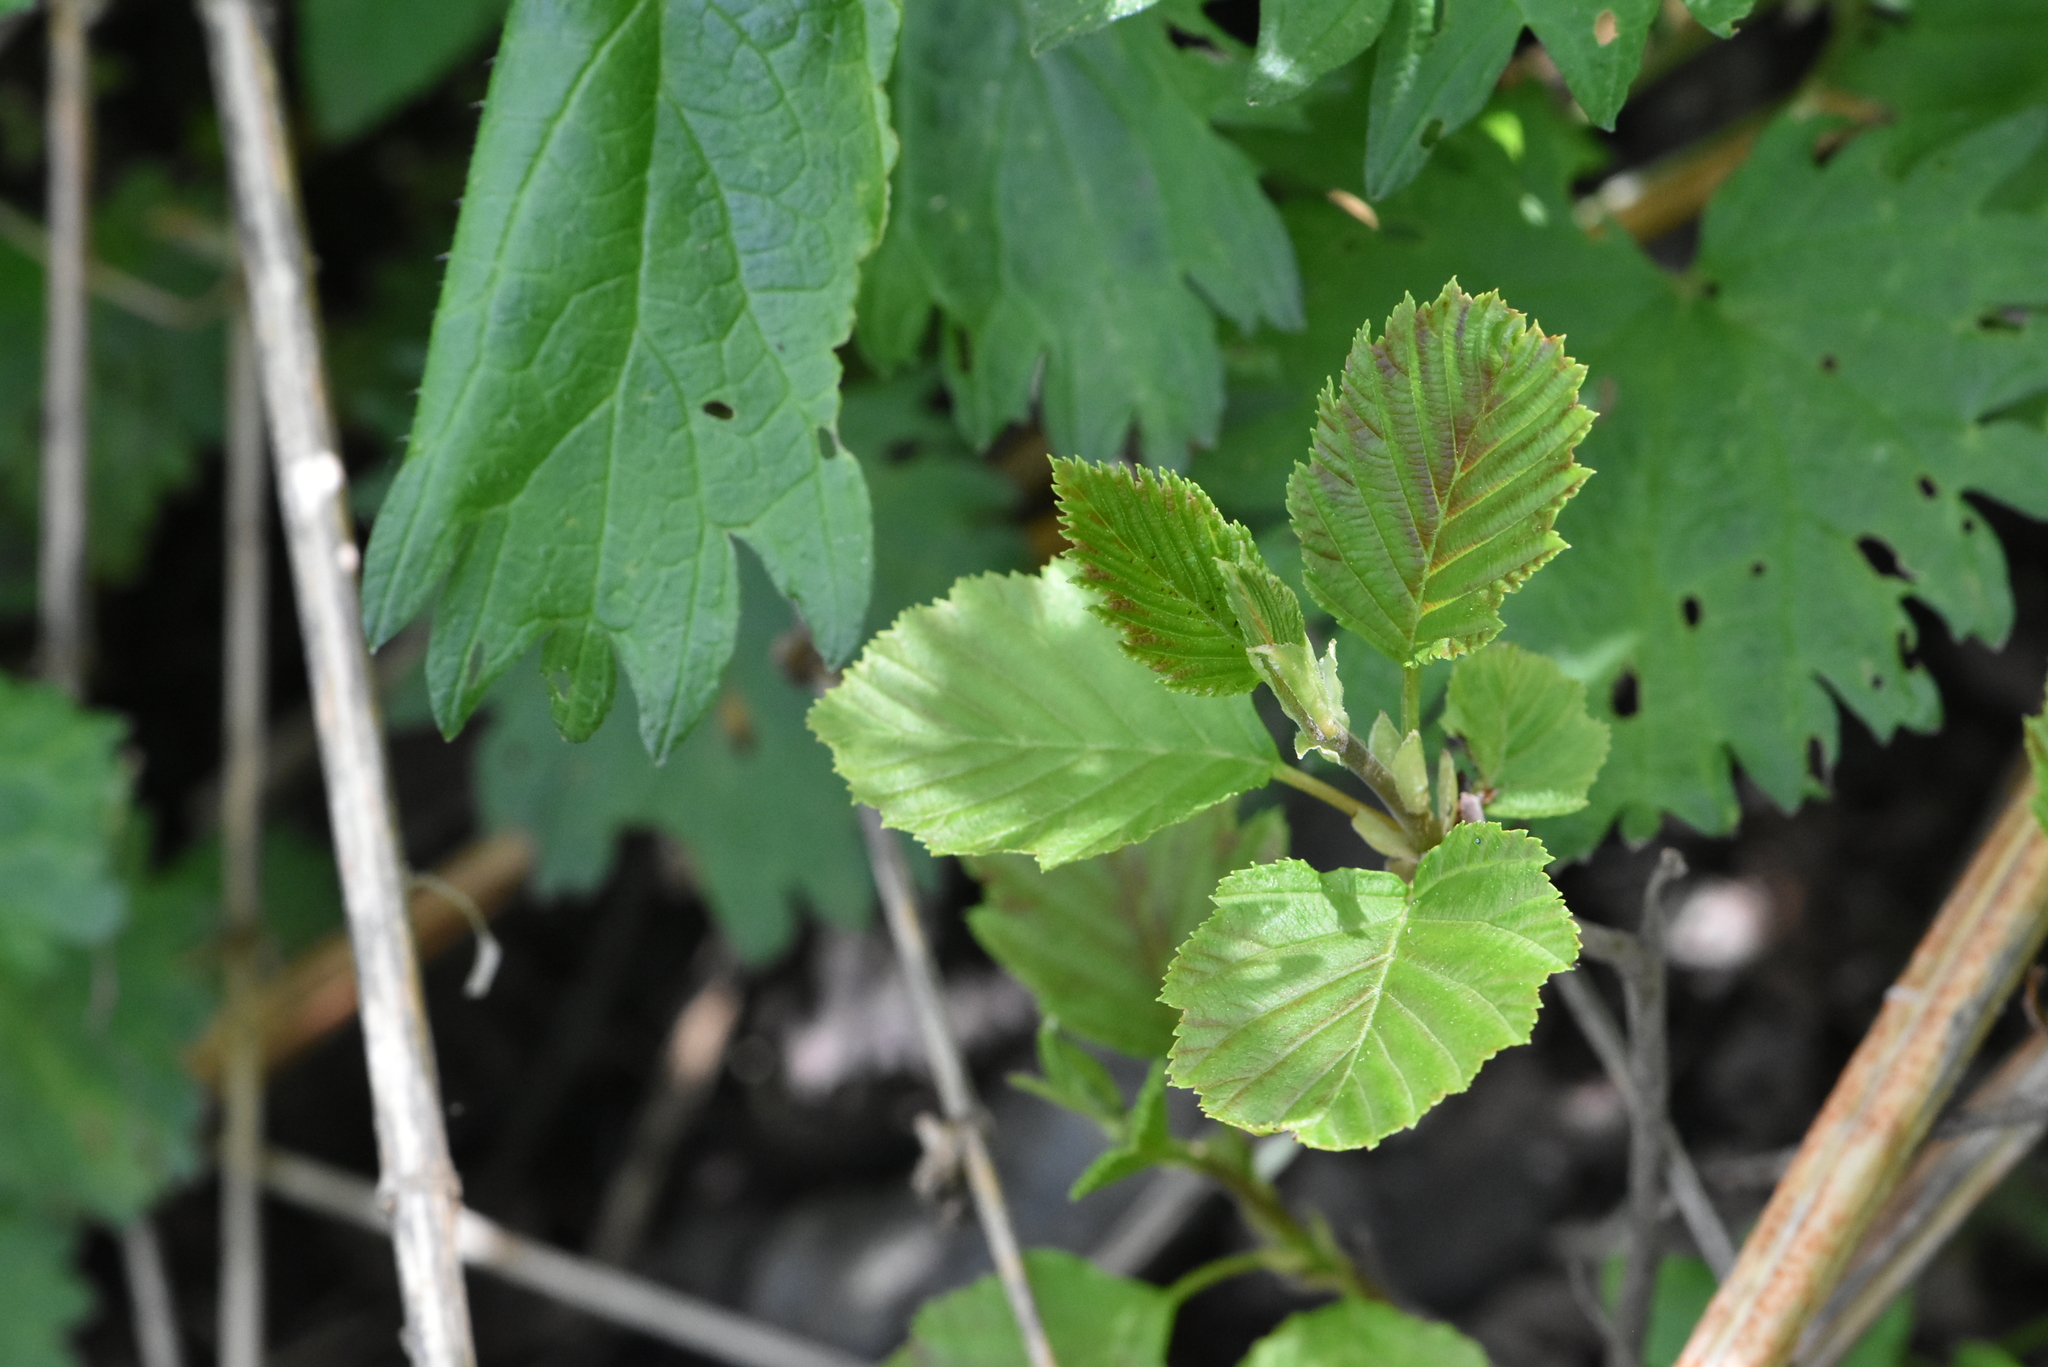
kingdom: Plantae
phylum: Tracheophyta
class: Magnoliopsida
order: Fagales
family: Betulaceae
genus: Alnus
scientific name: Alnus glutinosa
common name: Black alder
